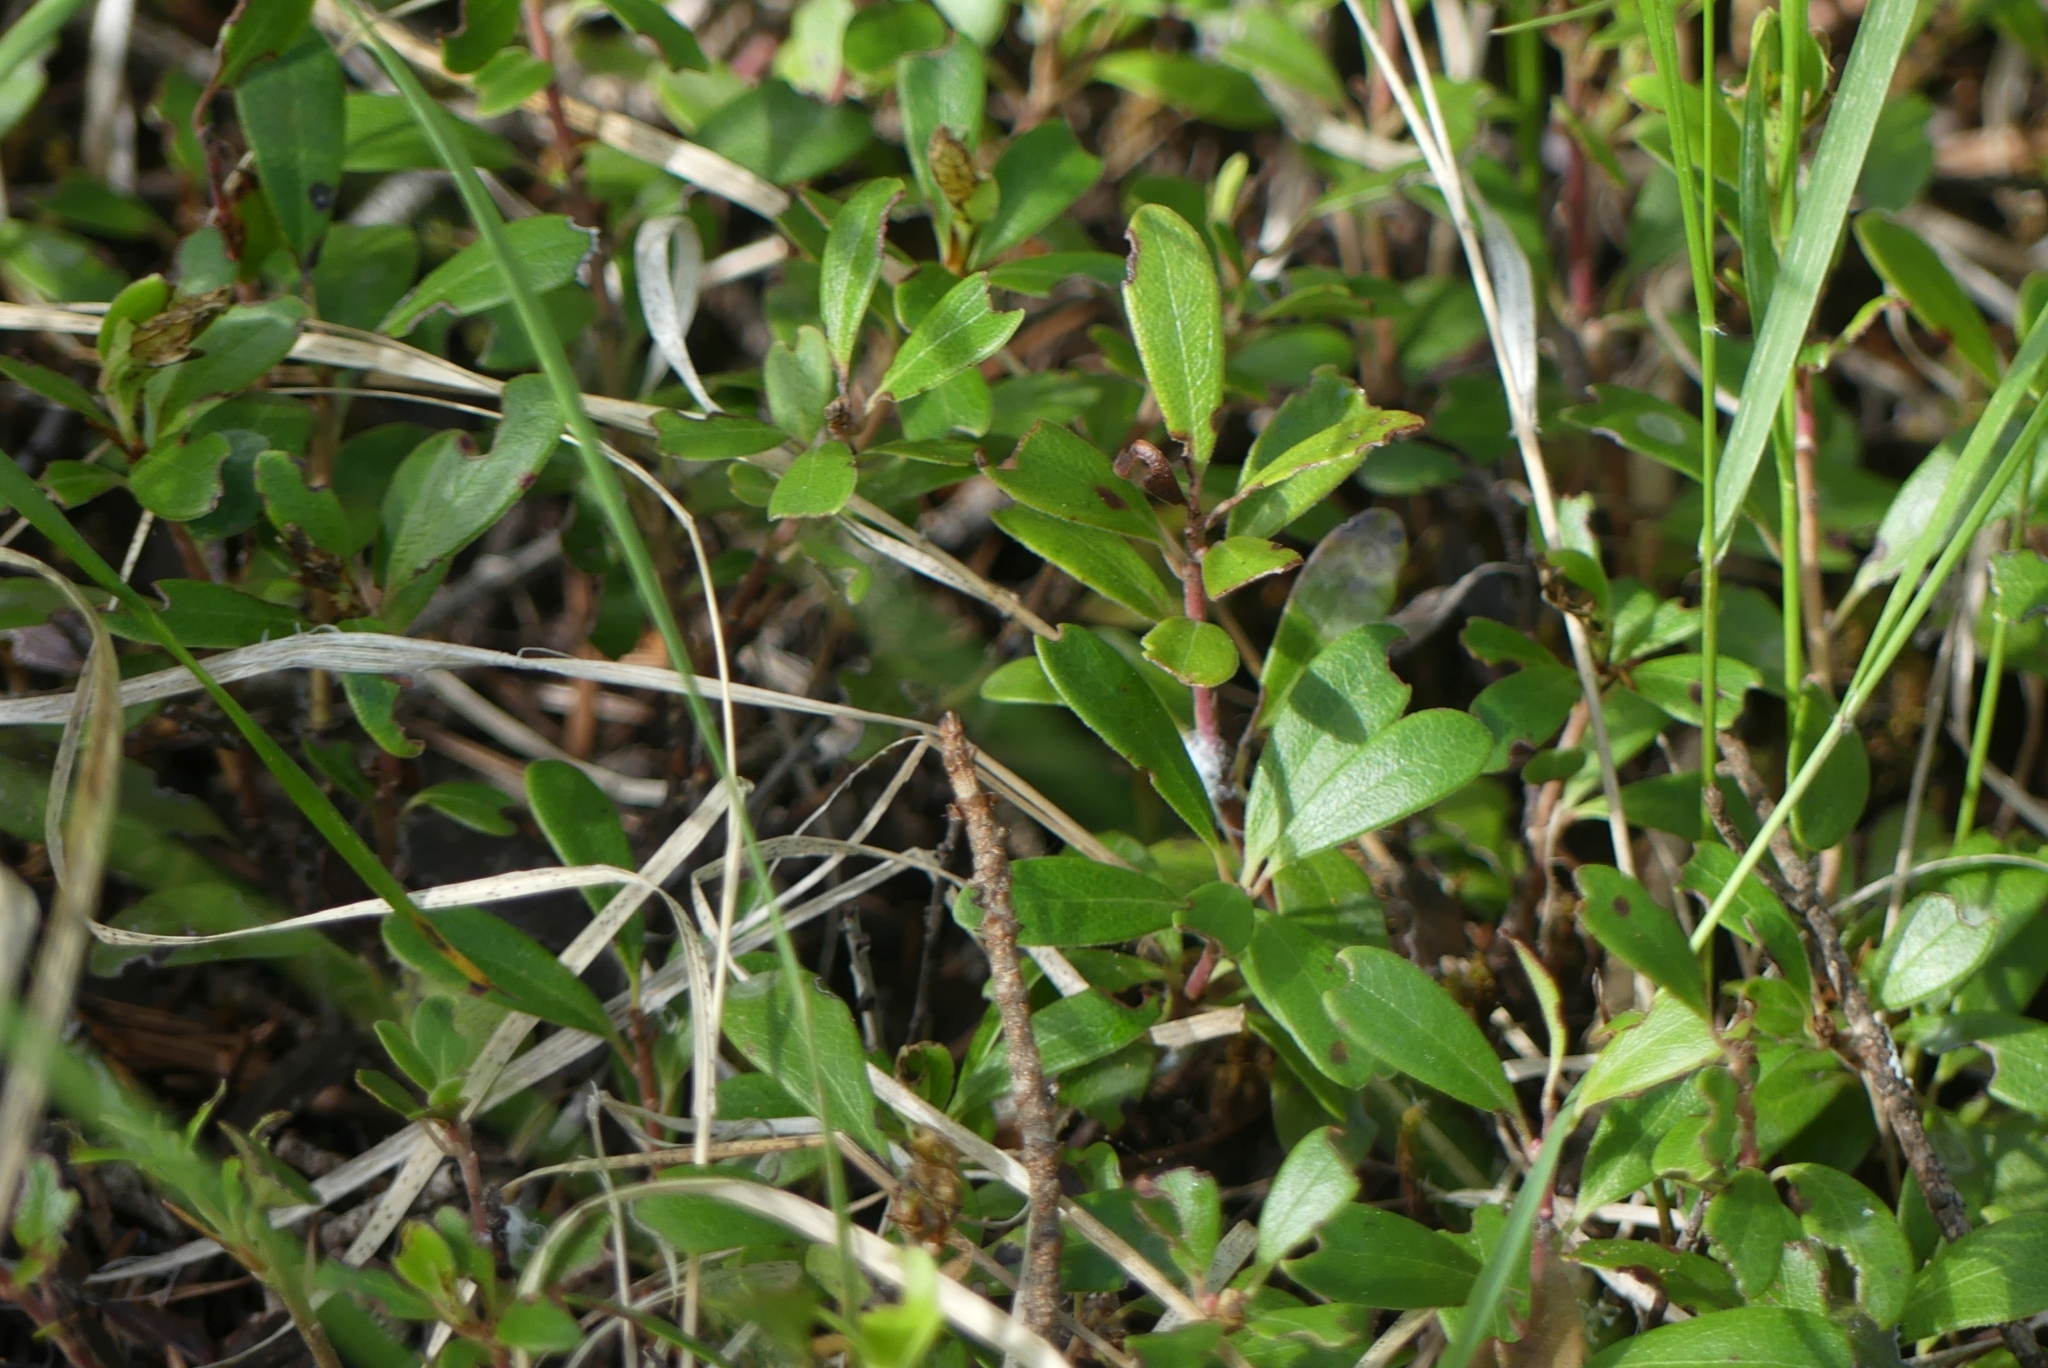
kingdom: Plantae
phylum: Tracheophyta
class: Magnoliopsida
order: Ericales
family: Ericaceae
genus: Arctostaphylos
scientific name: Arctostaphylos uva-ursi
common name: Bearberry
